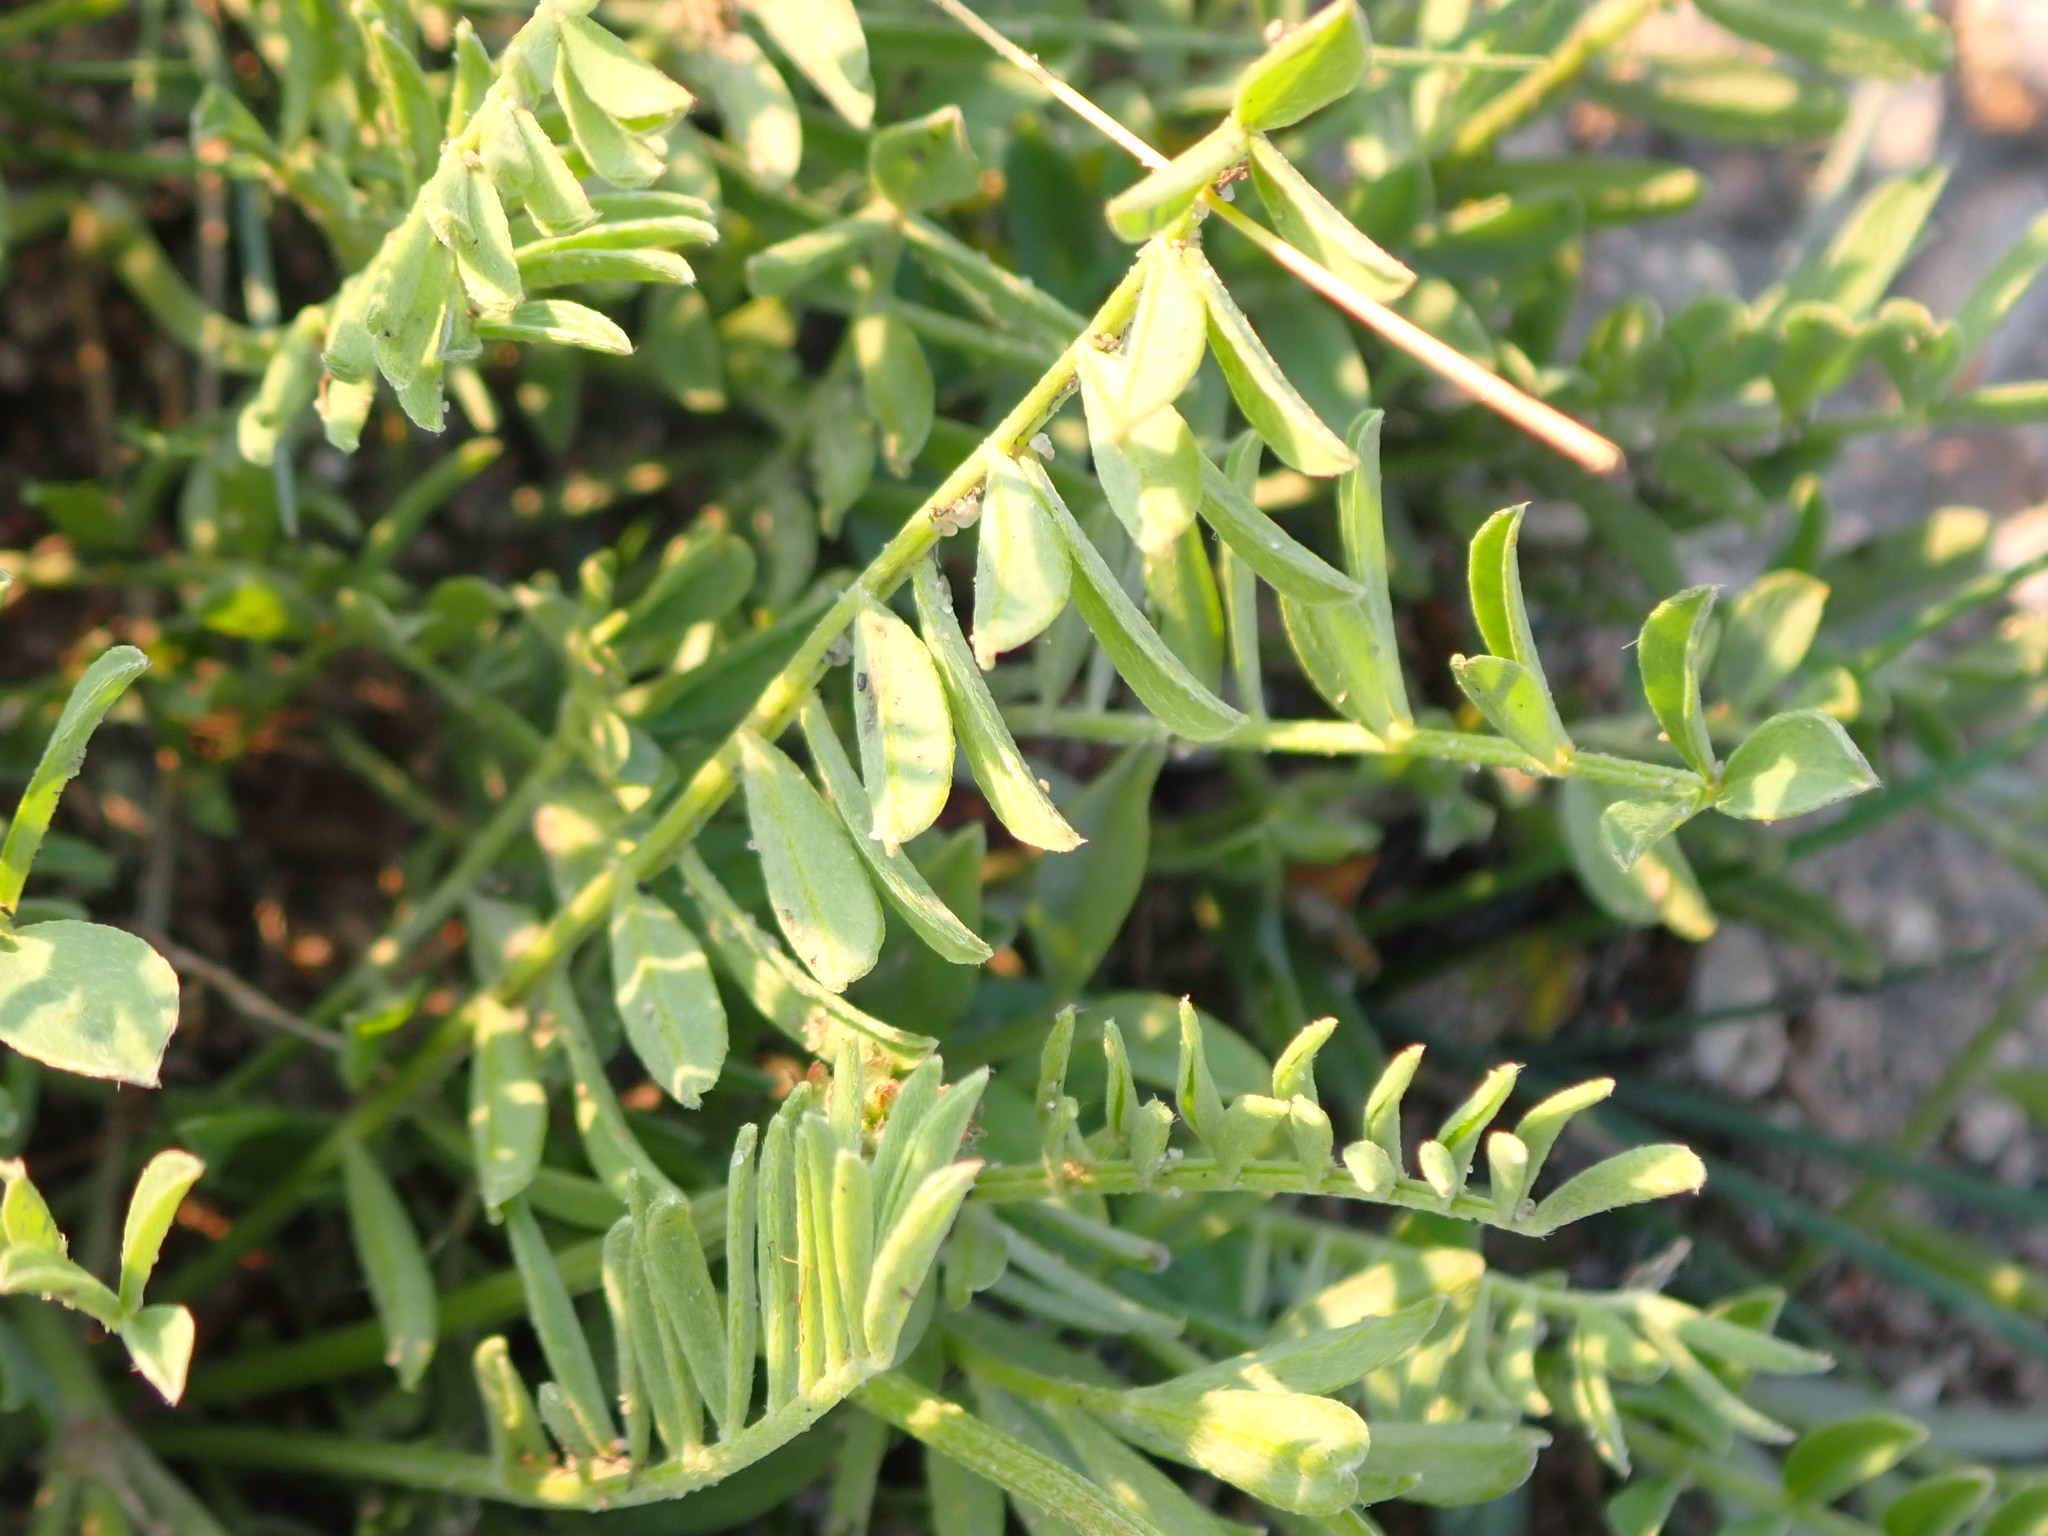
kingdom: Plantae
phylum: Tracheophyta
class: Magnoliopsida
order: Fabales
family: Fabaceae
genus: Astragalus
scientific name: Astragalus laxmannii
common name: Laxmann's milk-vetch
